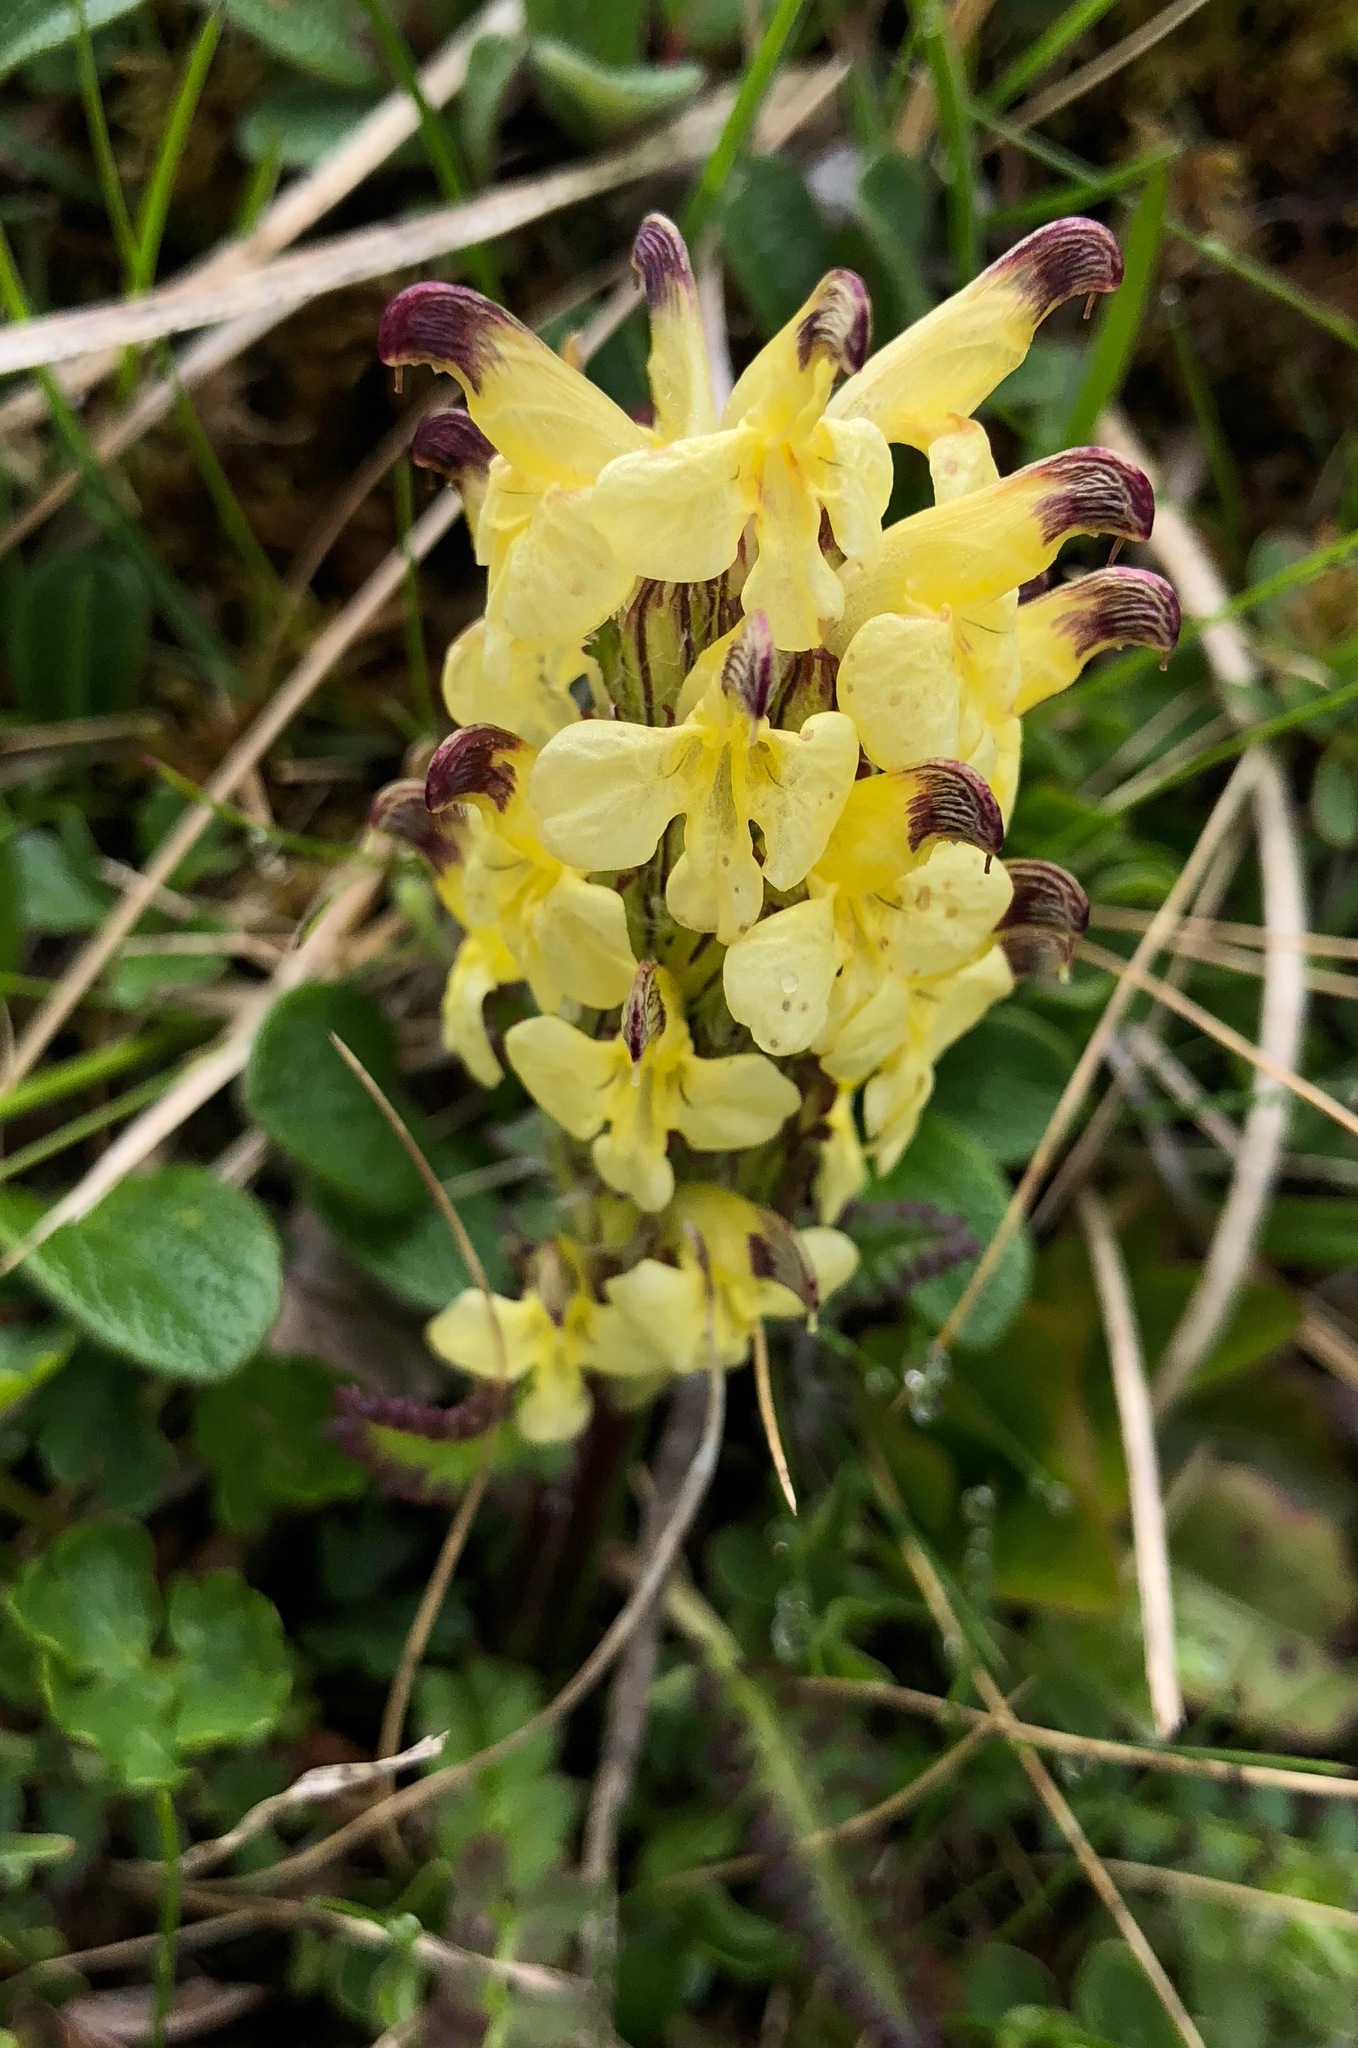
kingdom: Plantae
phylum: Tracheophyta
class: Magnoliopsida
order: Lamiales
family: Orobanchaceae
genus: Pedicularis
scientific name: Pedicularis oederi
